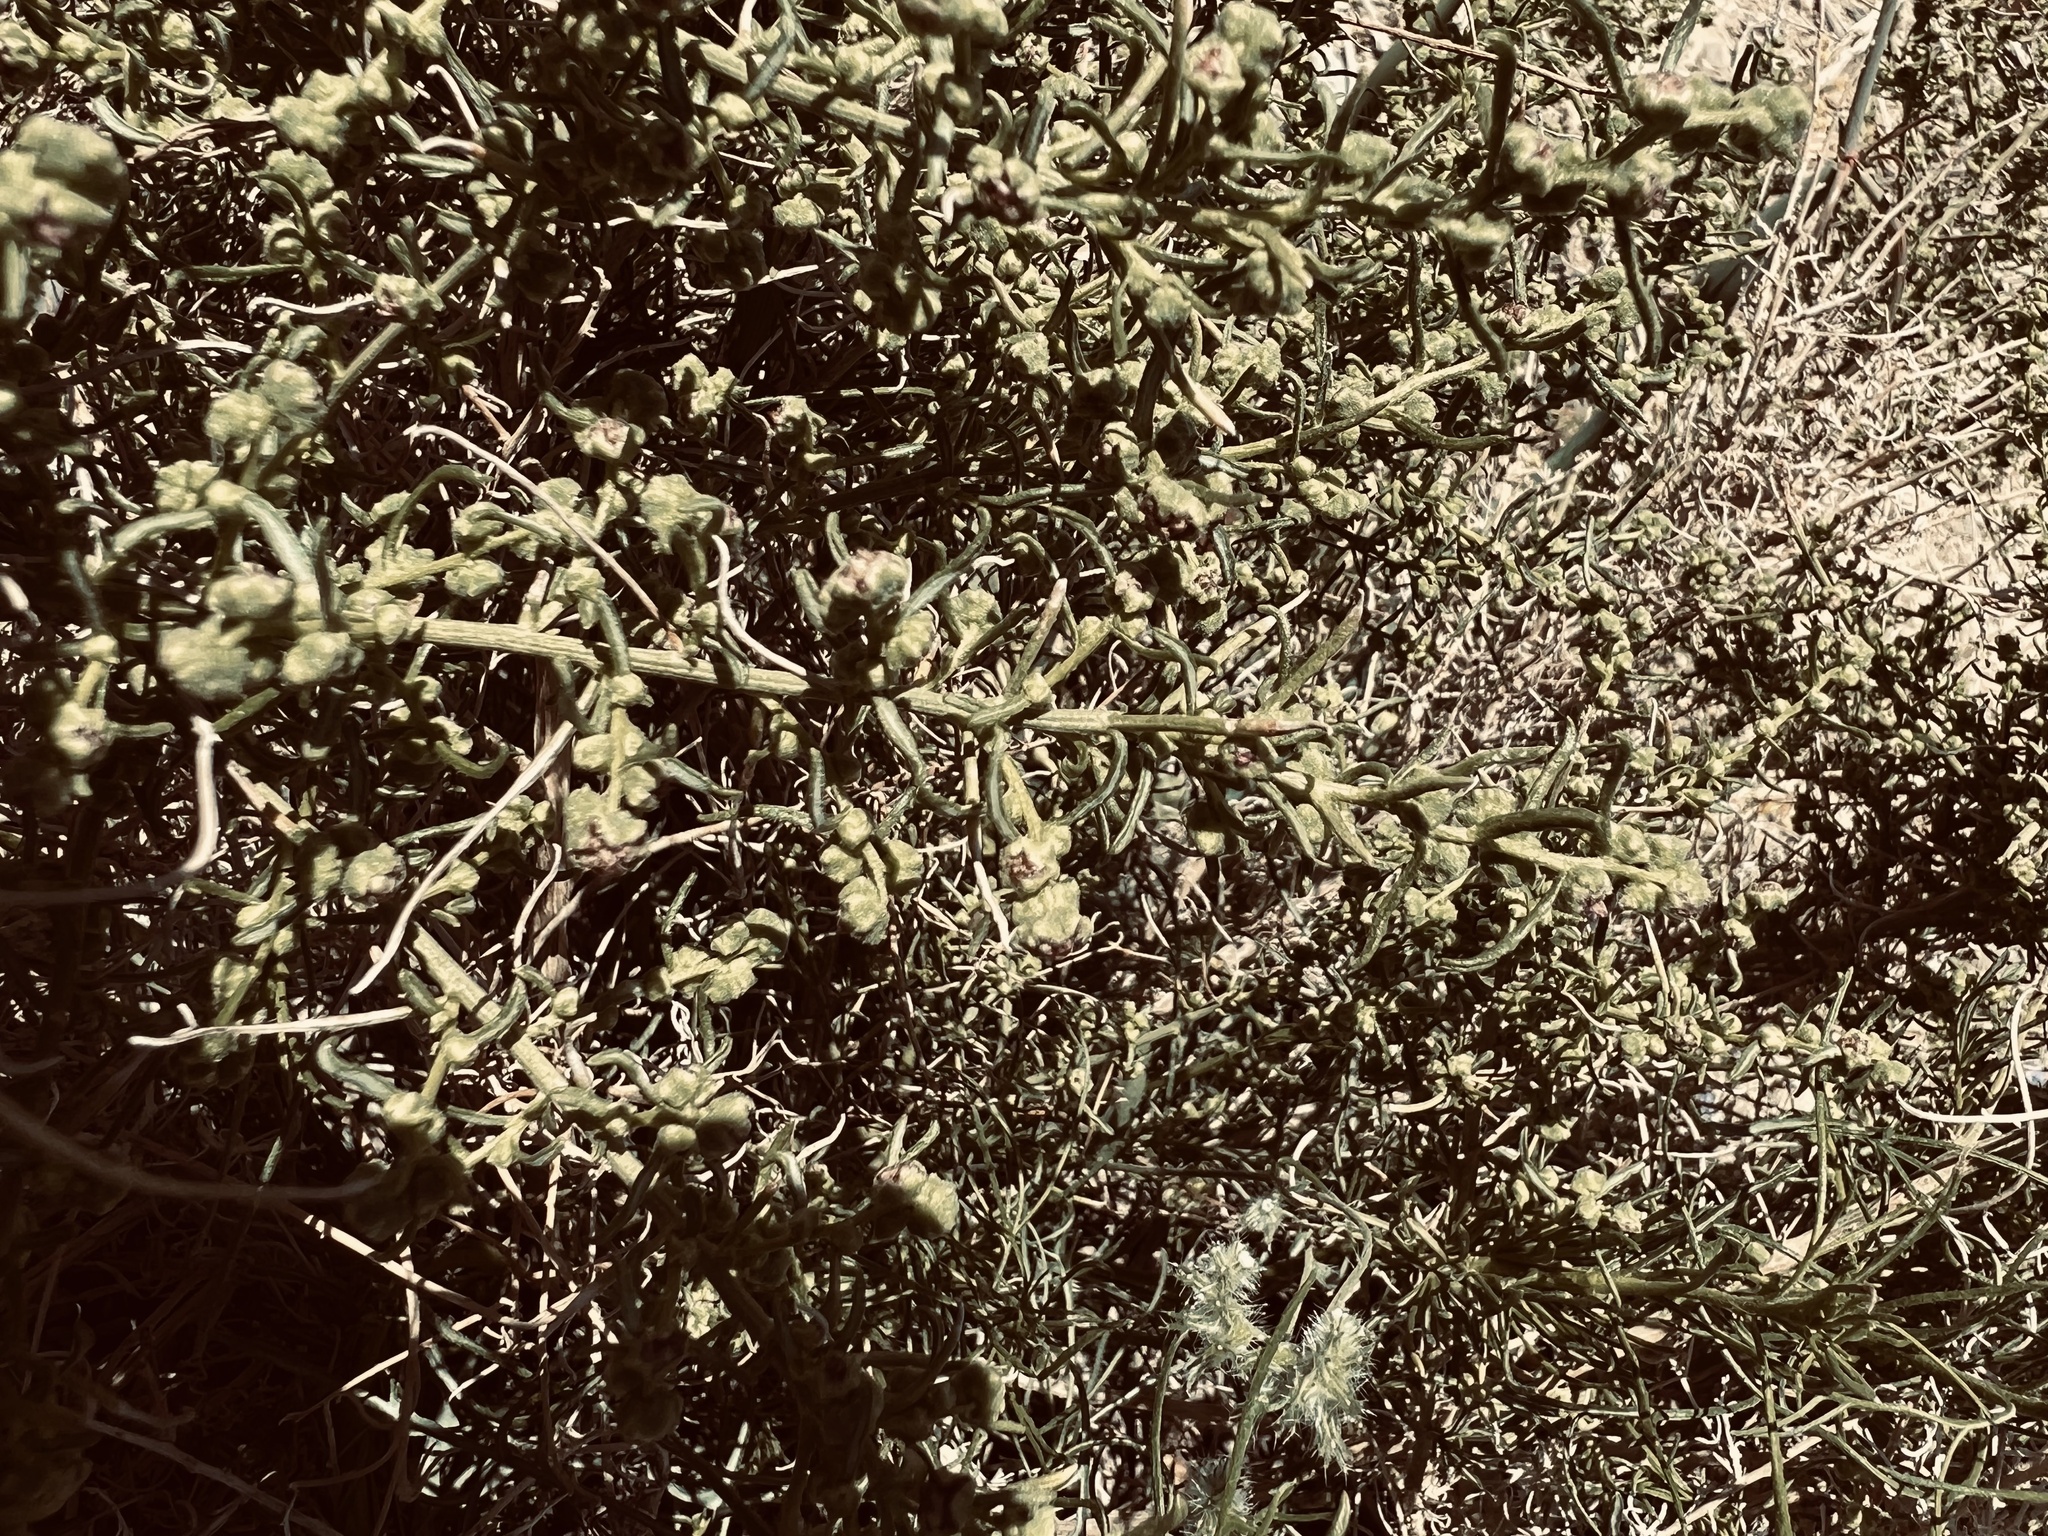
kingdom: Plantae
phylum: Tracheophyta
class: Magnoliopsida
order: Asterales
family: Asteraceae
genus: Ambrosia
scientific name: Ambrosia salsola
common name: Burrobrush
